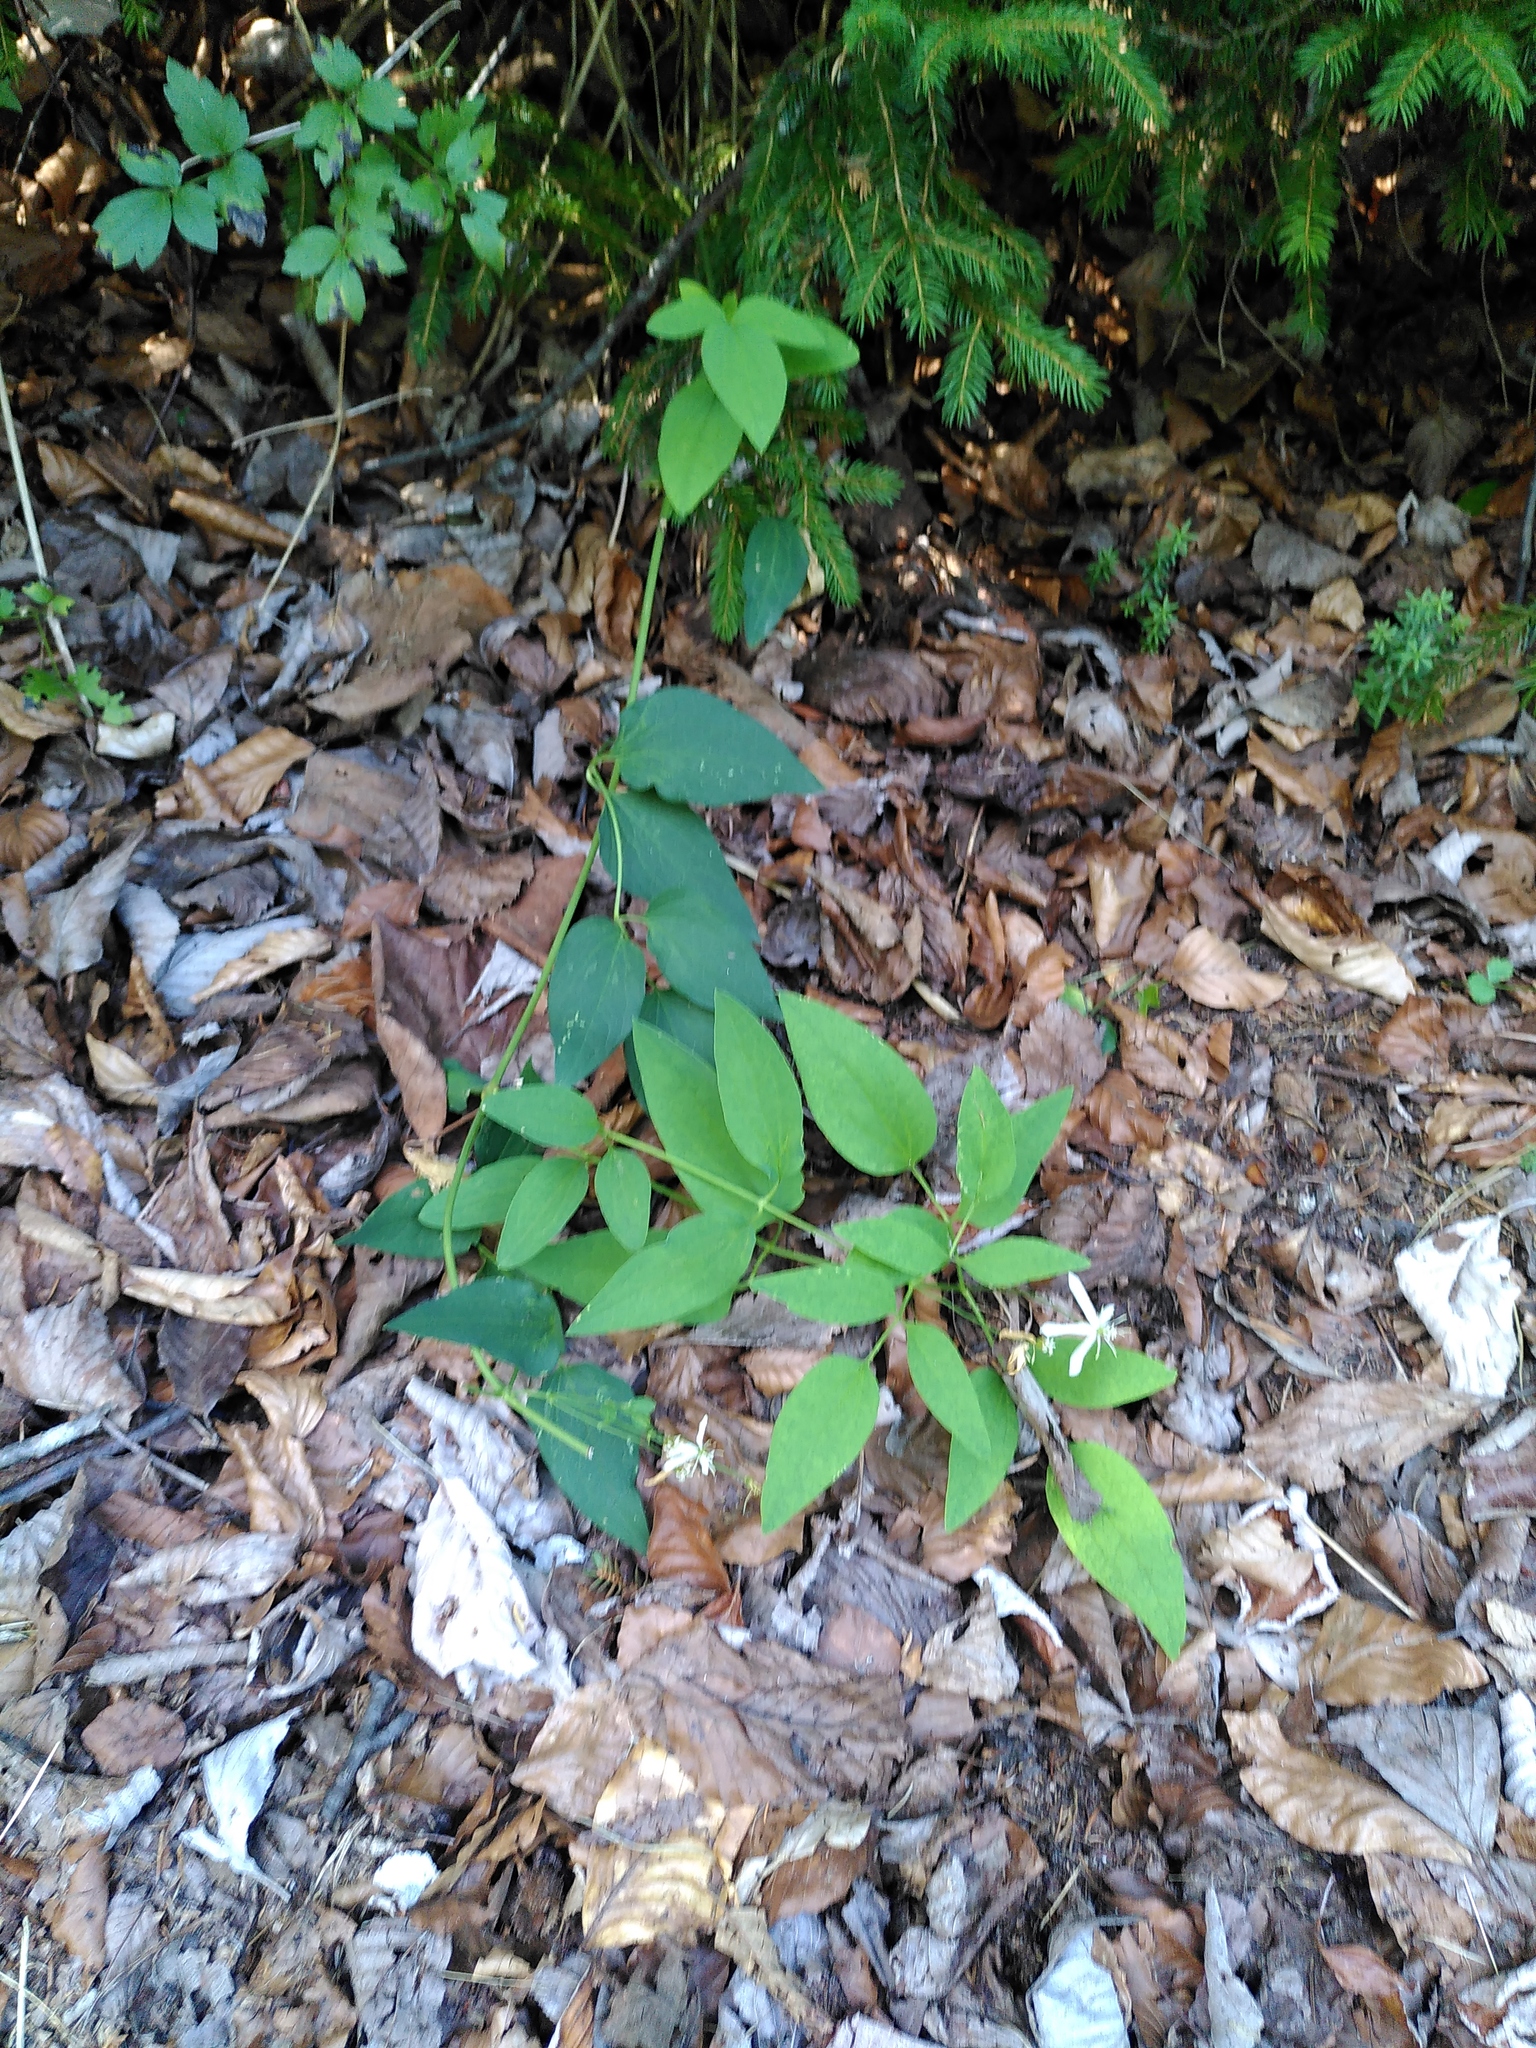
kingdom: Plantae
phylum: Tracheophyta
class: Magnoliopsida
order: Ranunculales
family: Ranunculaceae
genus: Clematis
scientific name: Clematis recta
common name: Ground clematis
